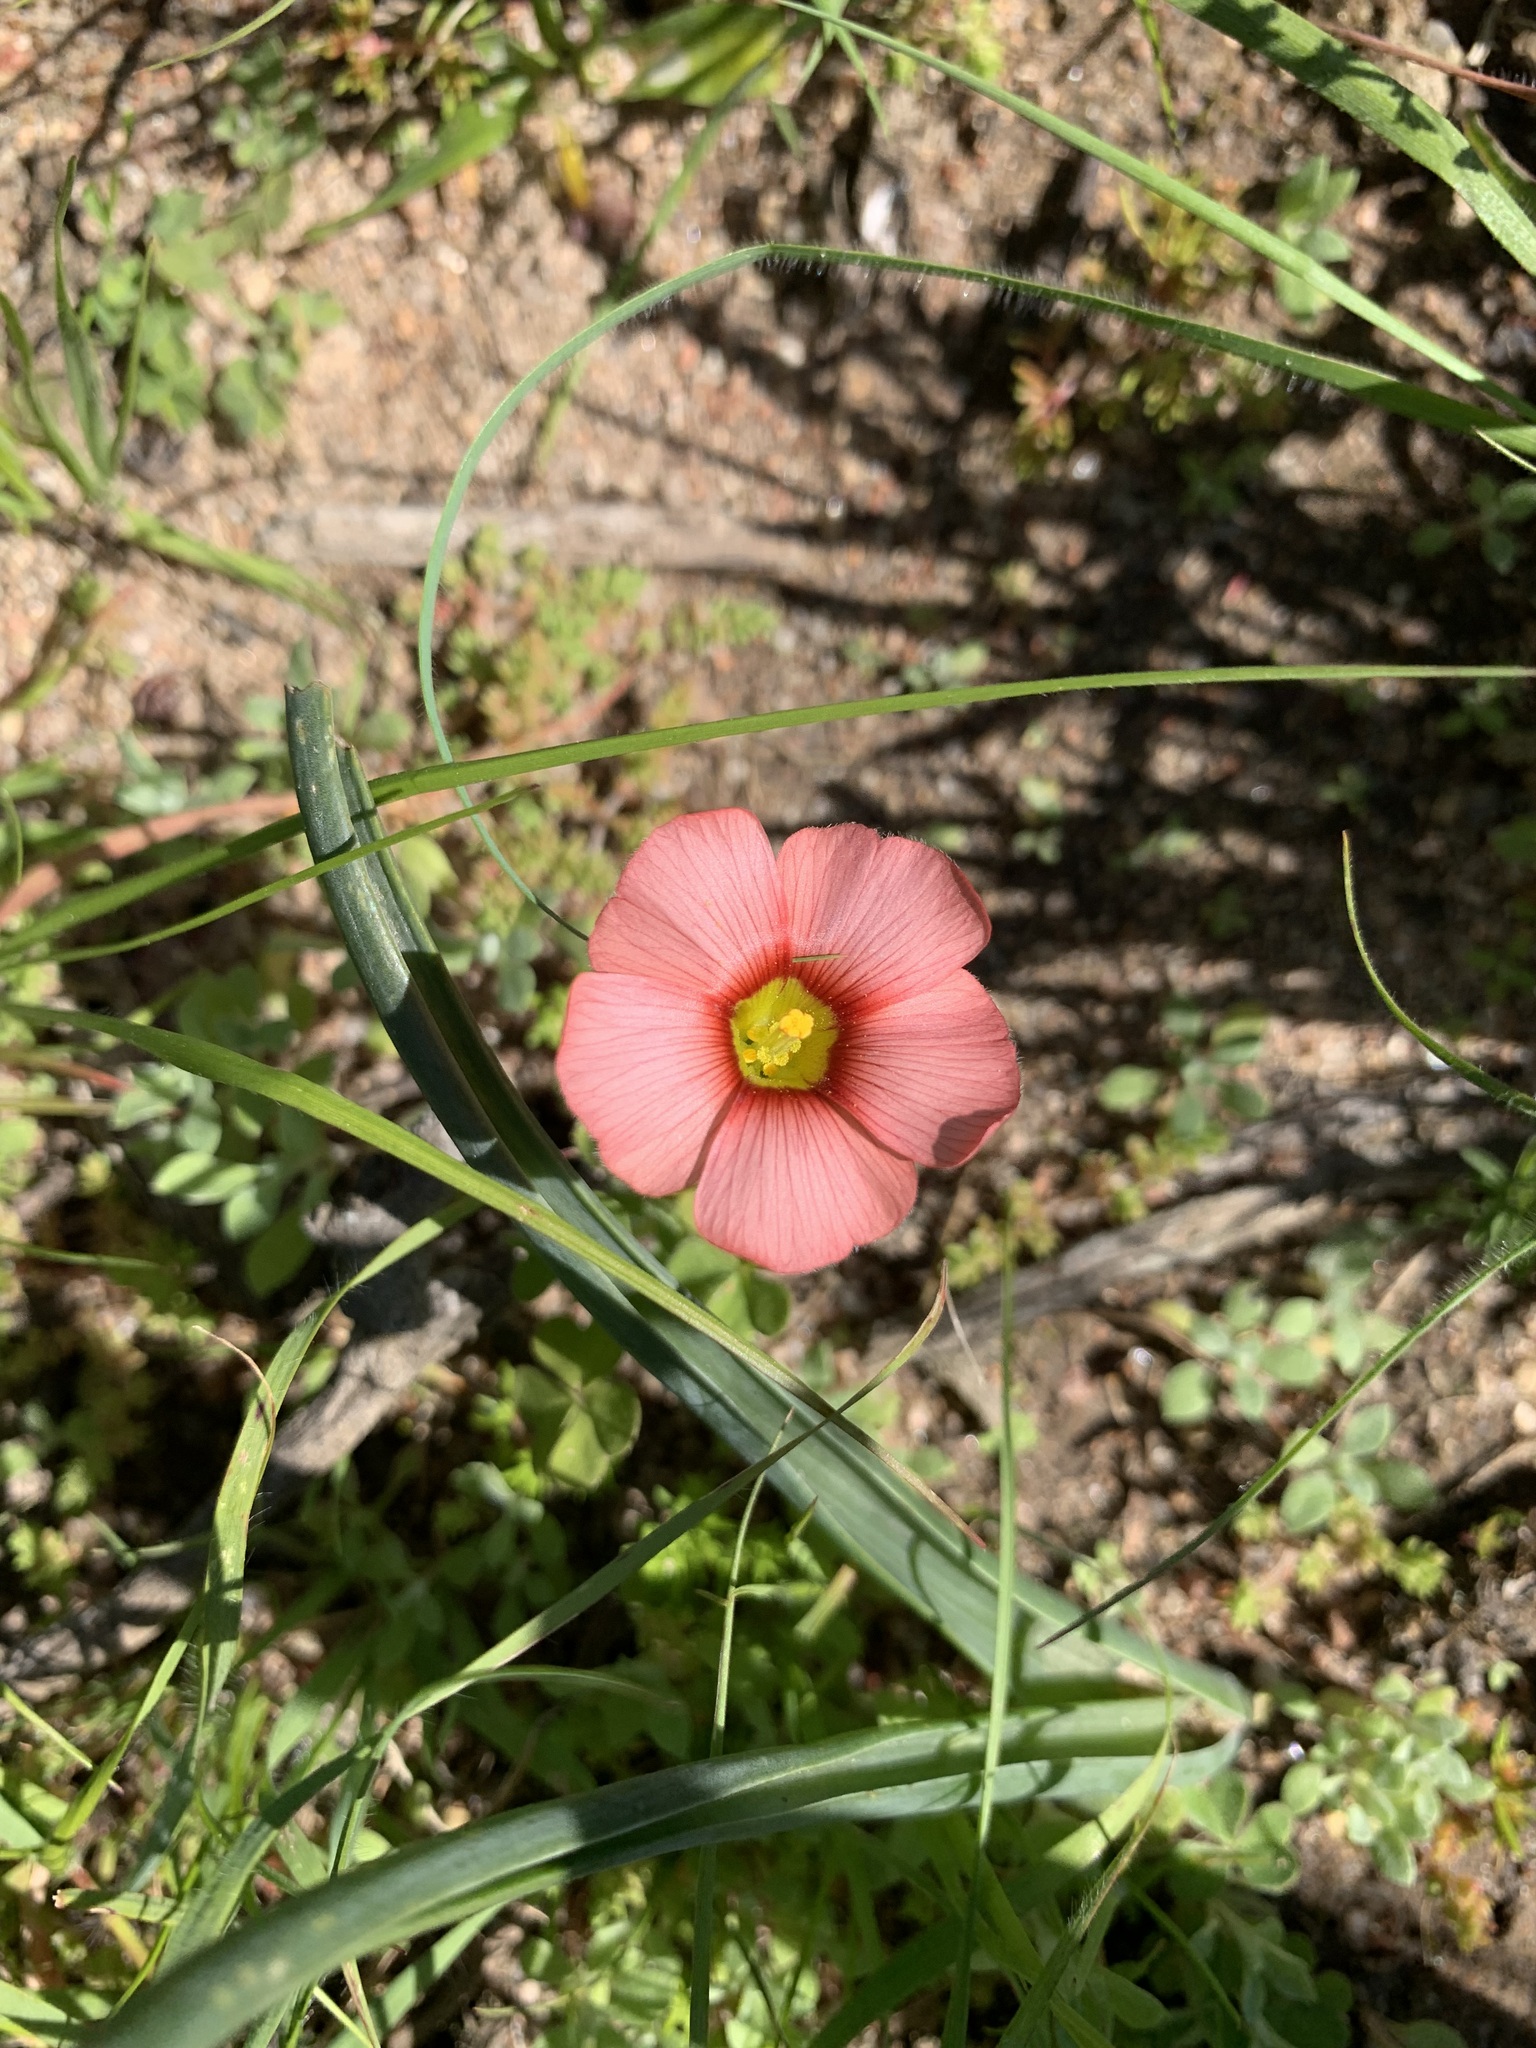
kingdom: Plantae
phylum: Tracheophyta
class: Magnoliopsida
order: Oxalidales
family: Oxalidaceae
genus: Oxalis
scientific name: Oxalis obtusa
